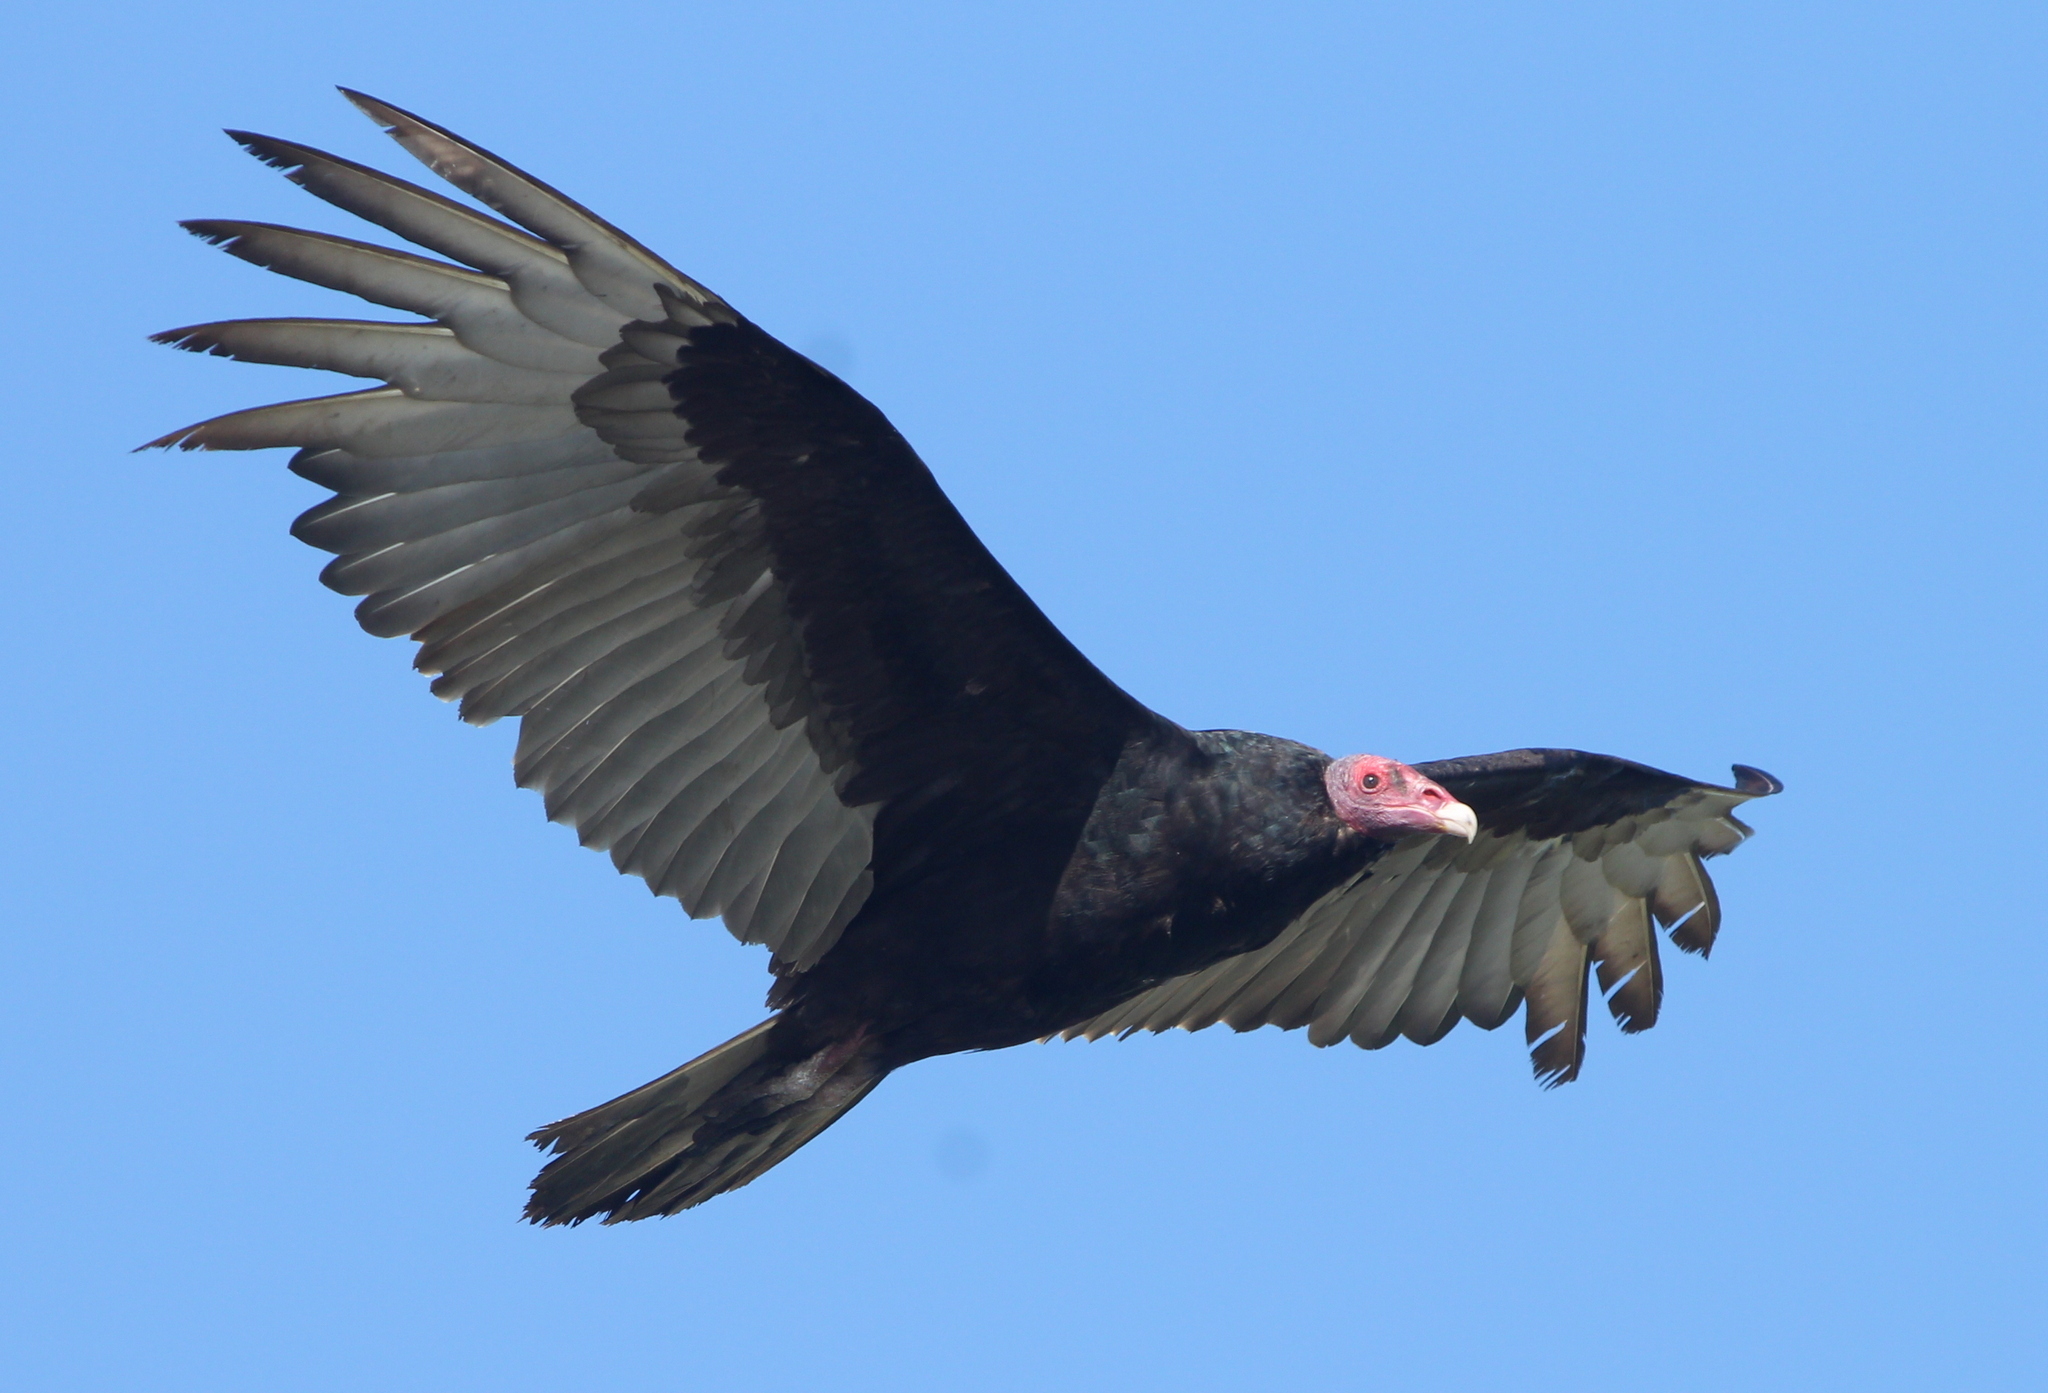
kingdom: Animalia
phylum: Chordata
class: Aves
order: Accipitriformes
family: Cathartidae
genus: Cathartes
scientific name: Cathartes aura
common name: Turkey vulture
